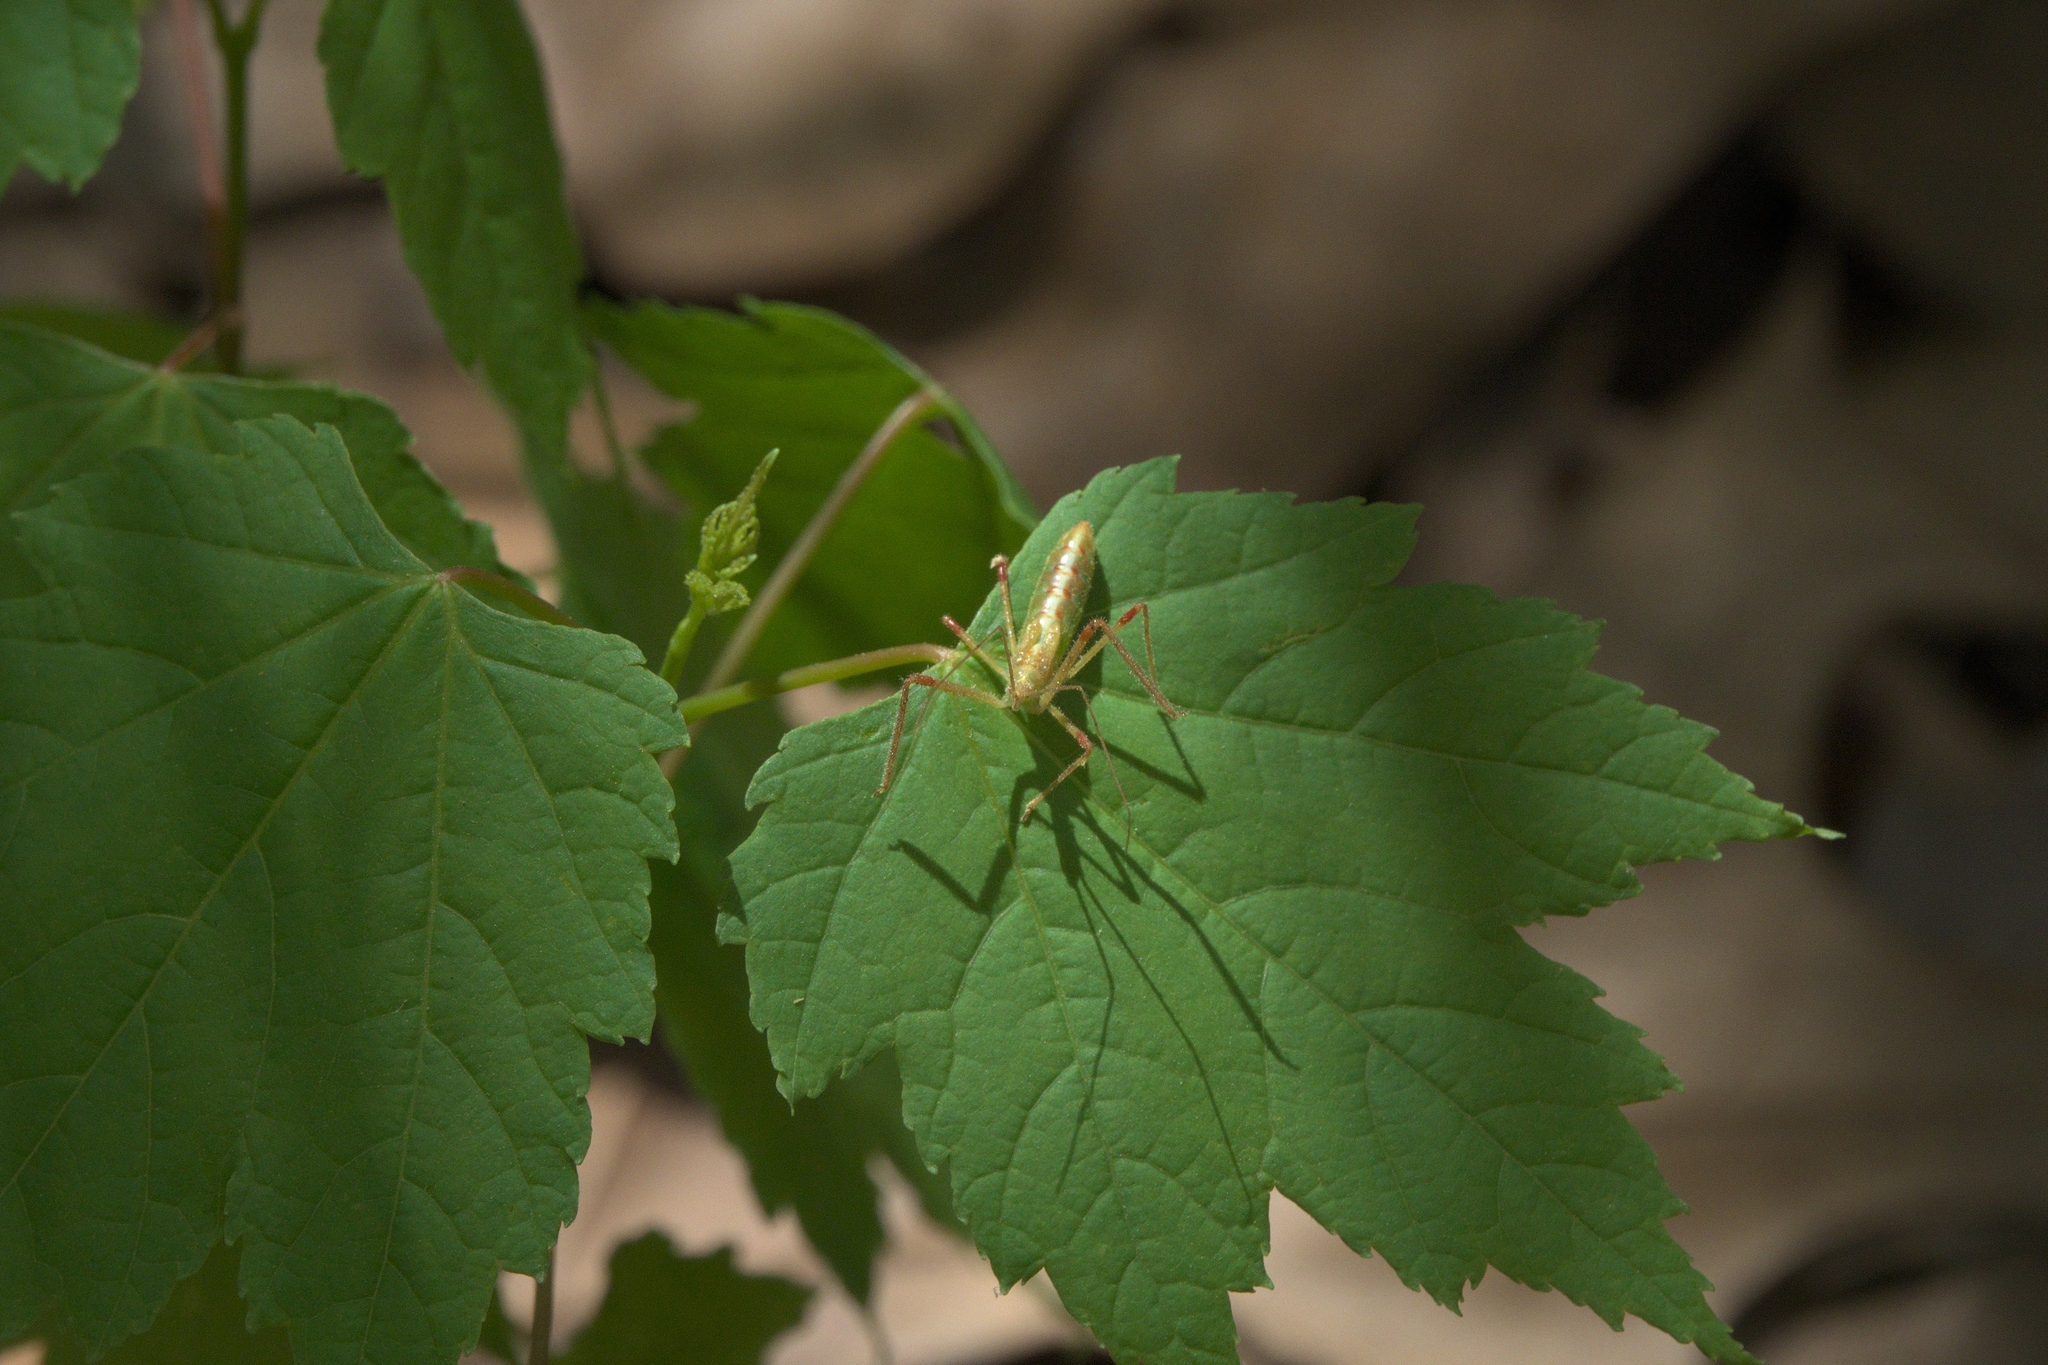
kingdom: Plantae
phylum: Tracheophyta
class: Magnoliopsida
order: Sapindales
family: Sapindaceae
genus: Acer
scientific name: Acer rubrum
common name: Red maple
